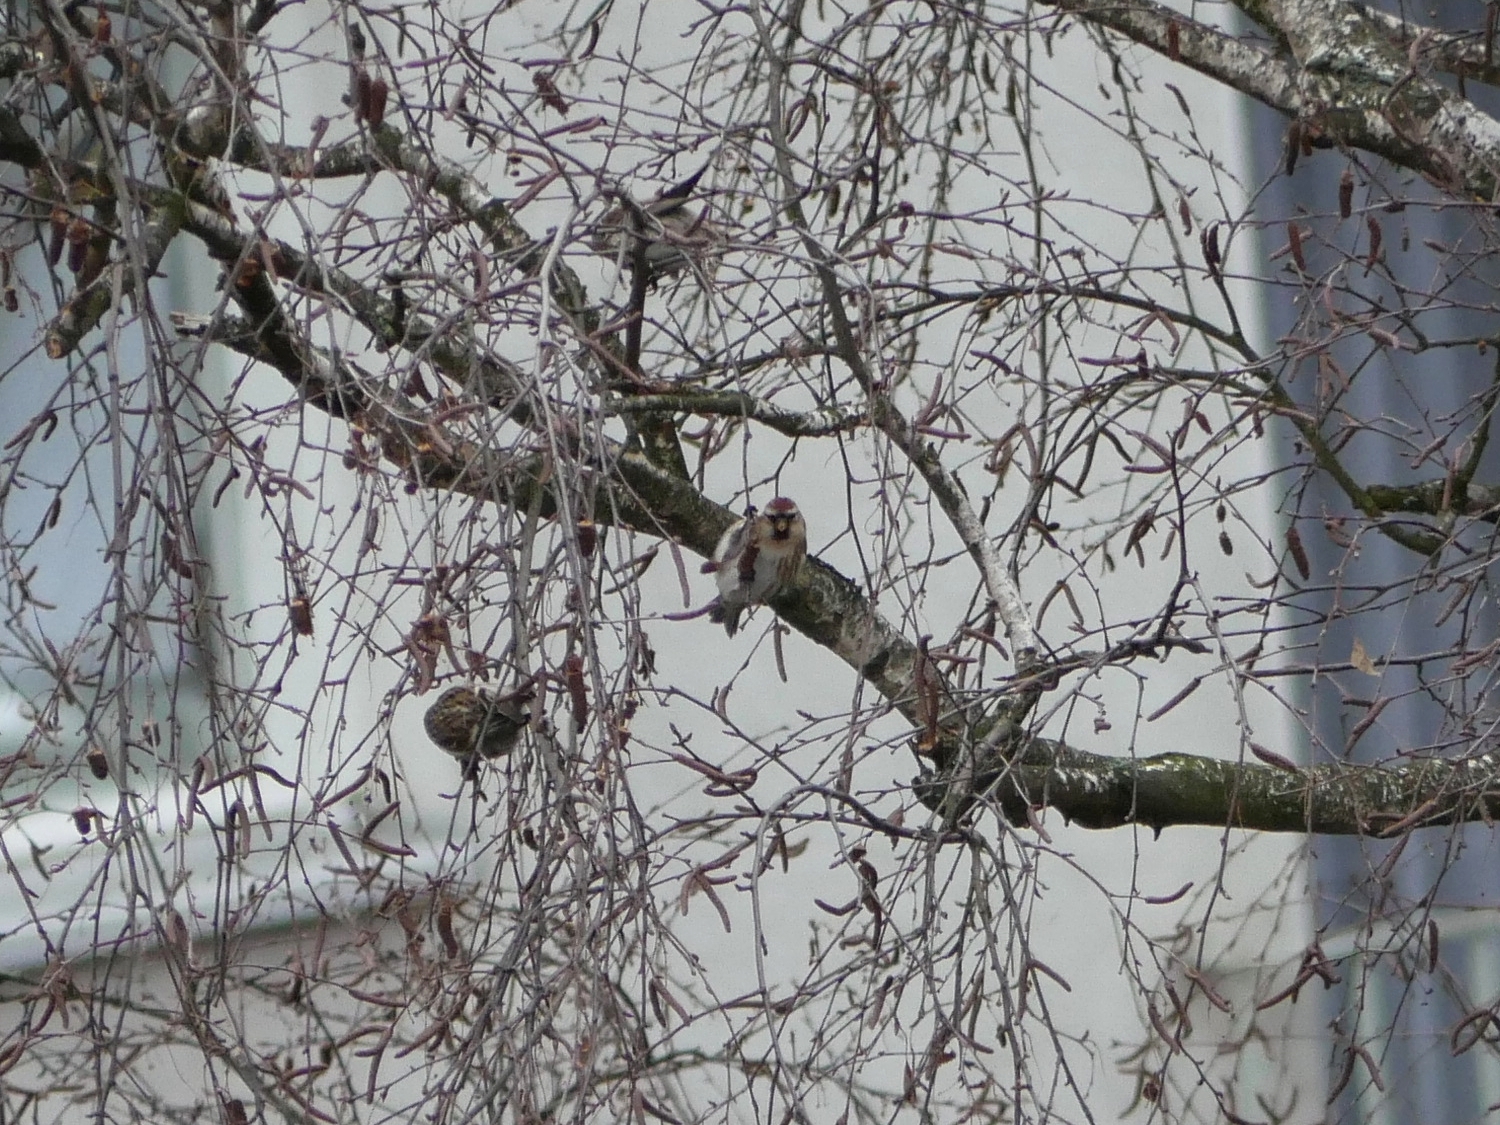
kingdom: Animalia
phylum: Chordata
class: Aves
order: Passeriformes
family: Fringillidae
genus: Acanthis
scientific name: Acanthis flammea
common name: Common redpoll
